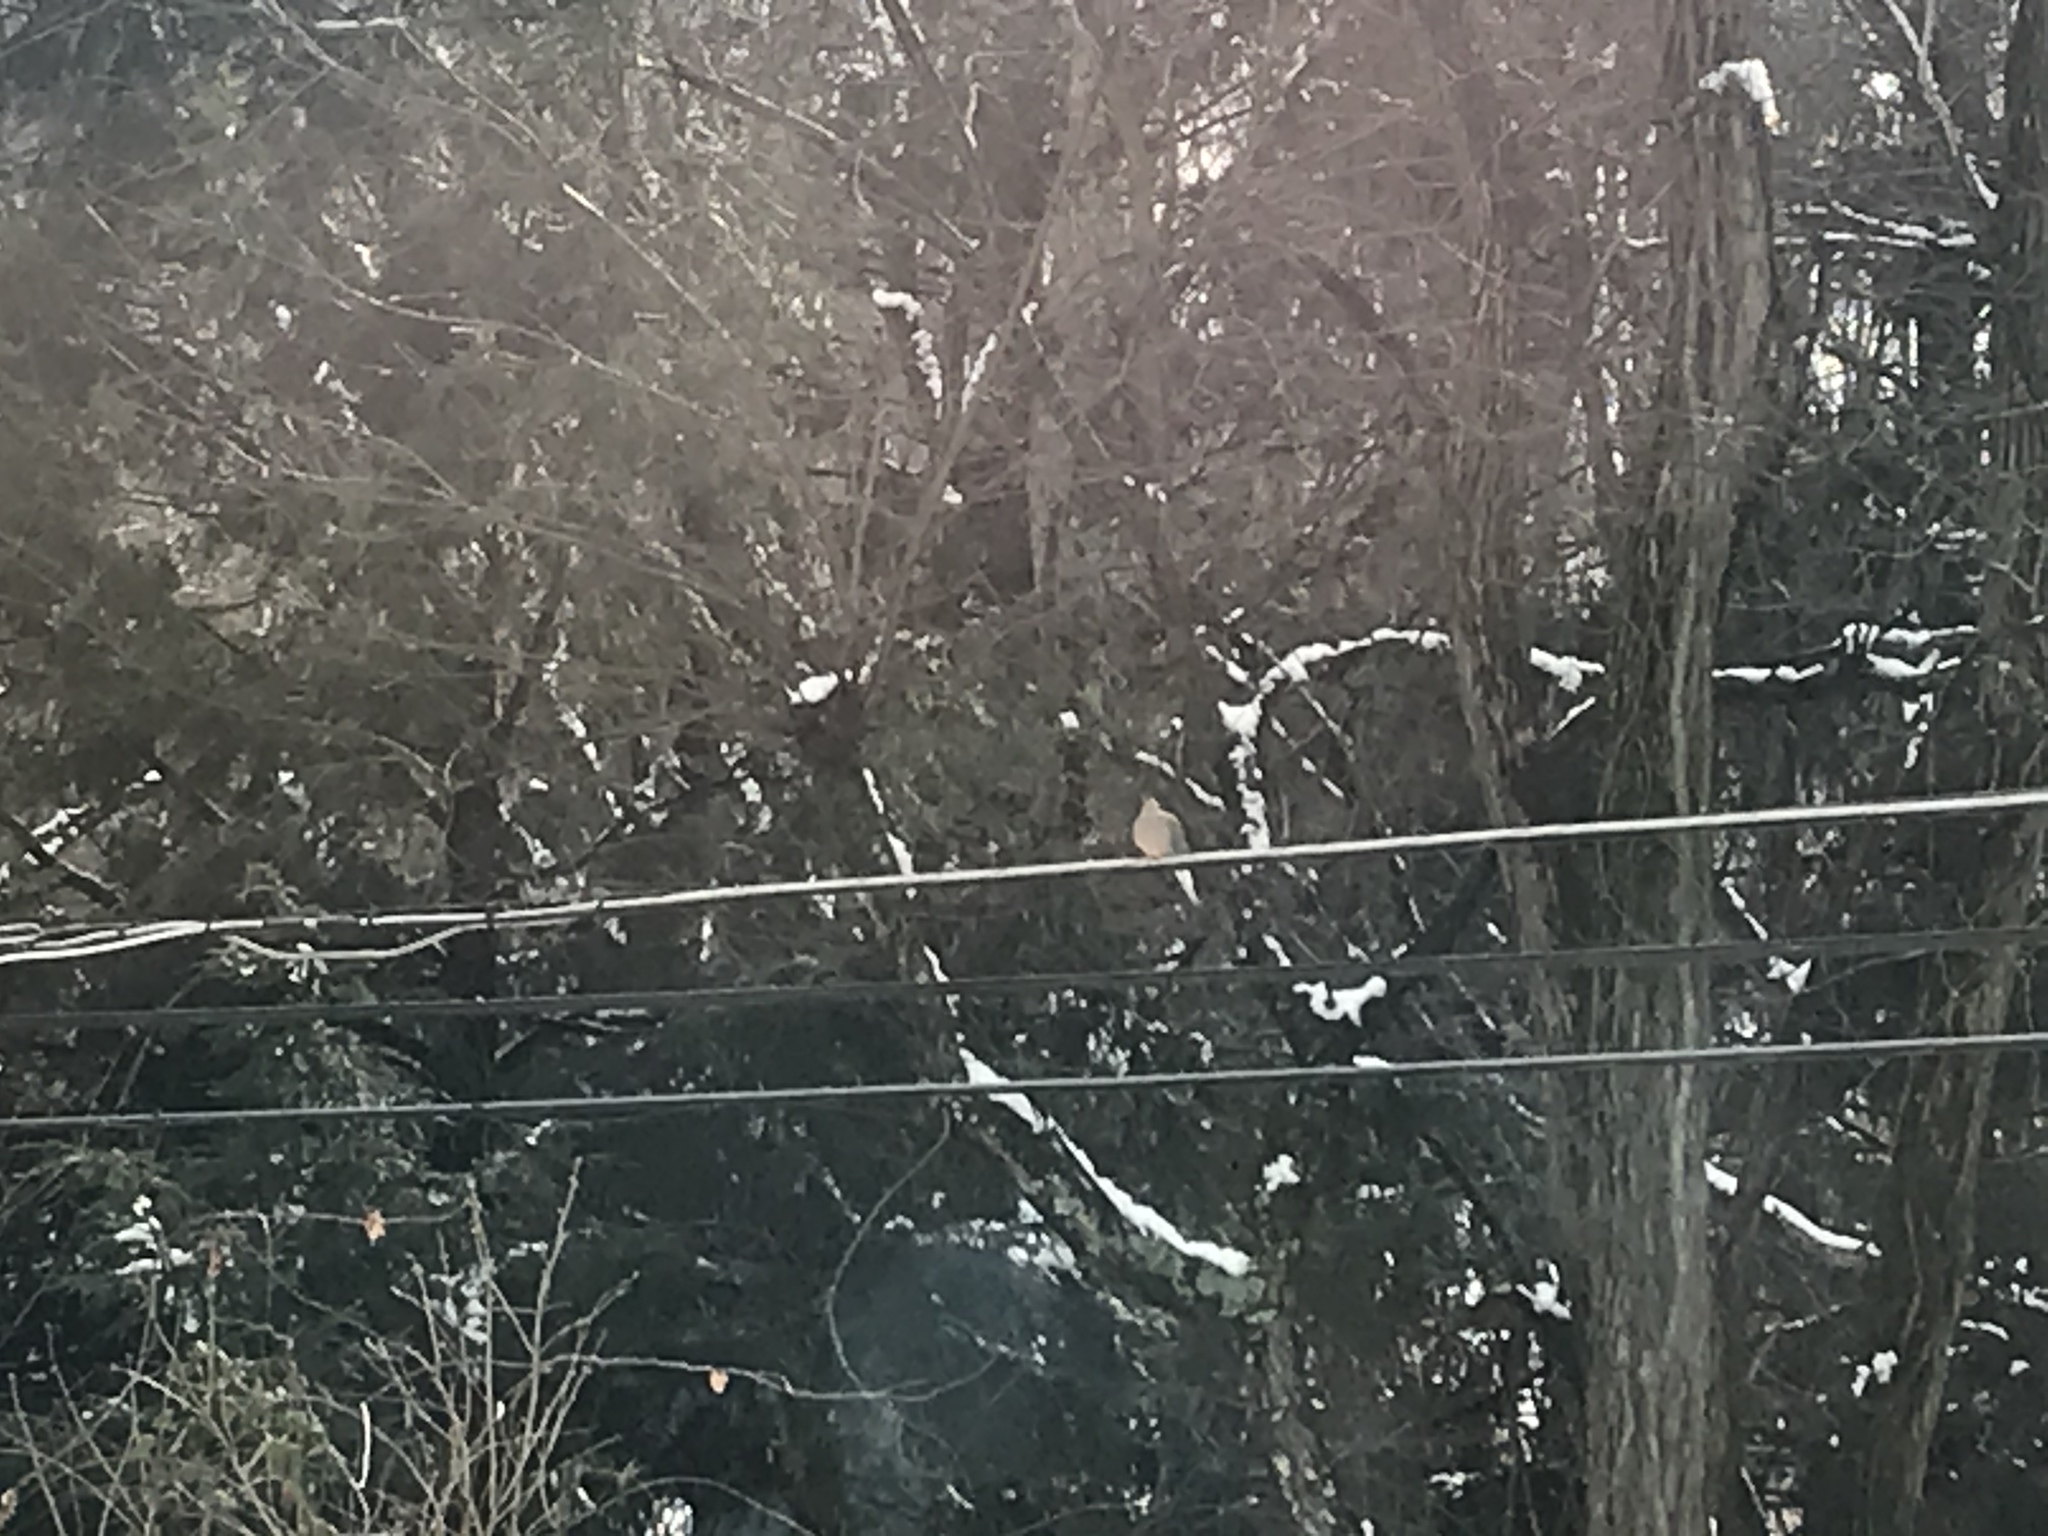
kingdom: Animalia
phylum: Chordata
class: Aves
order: Columbiformes
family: Columbidae
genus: Zenaida
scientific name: Zenaida macroura
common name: Mourning dove
